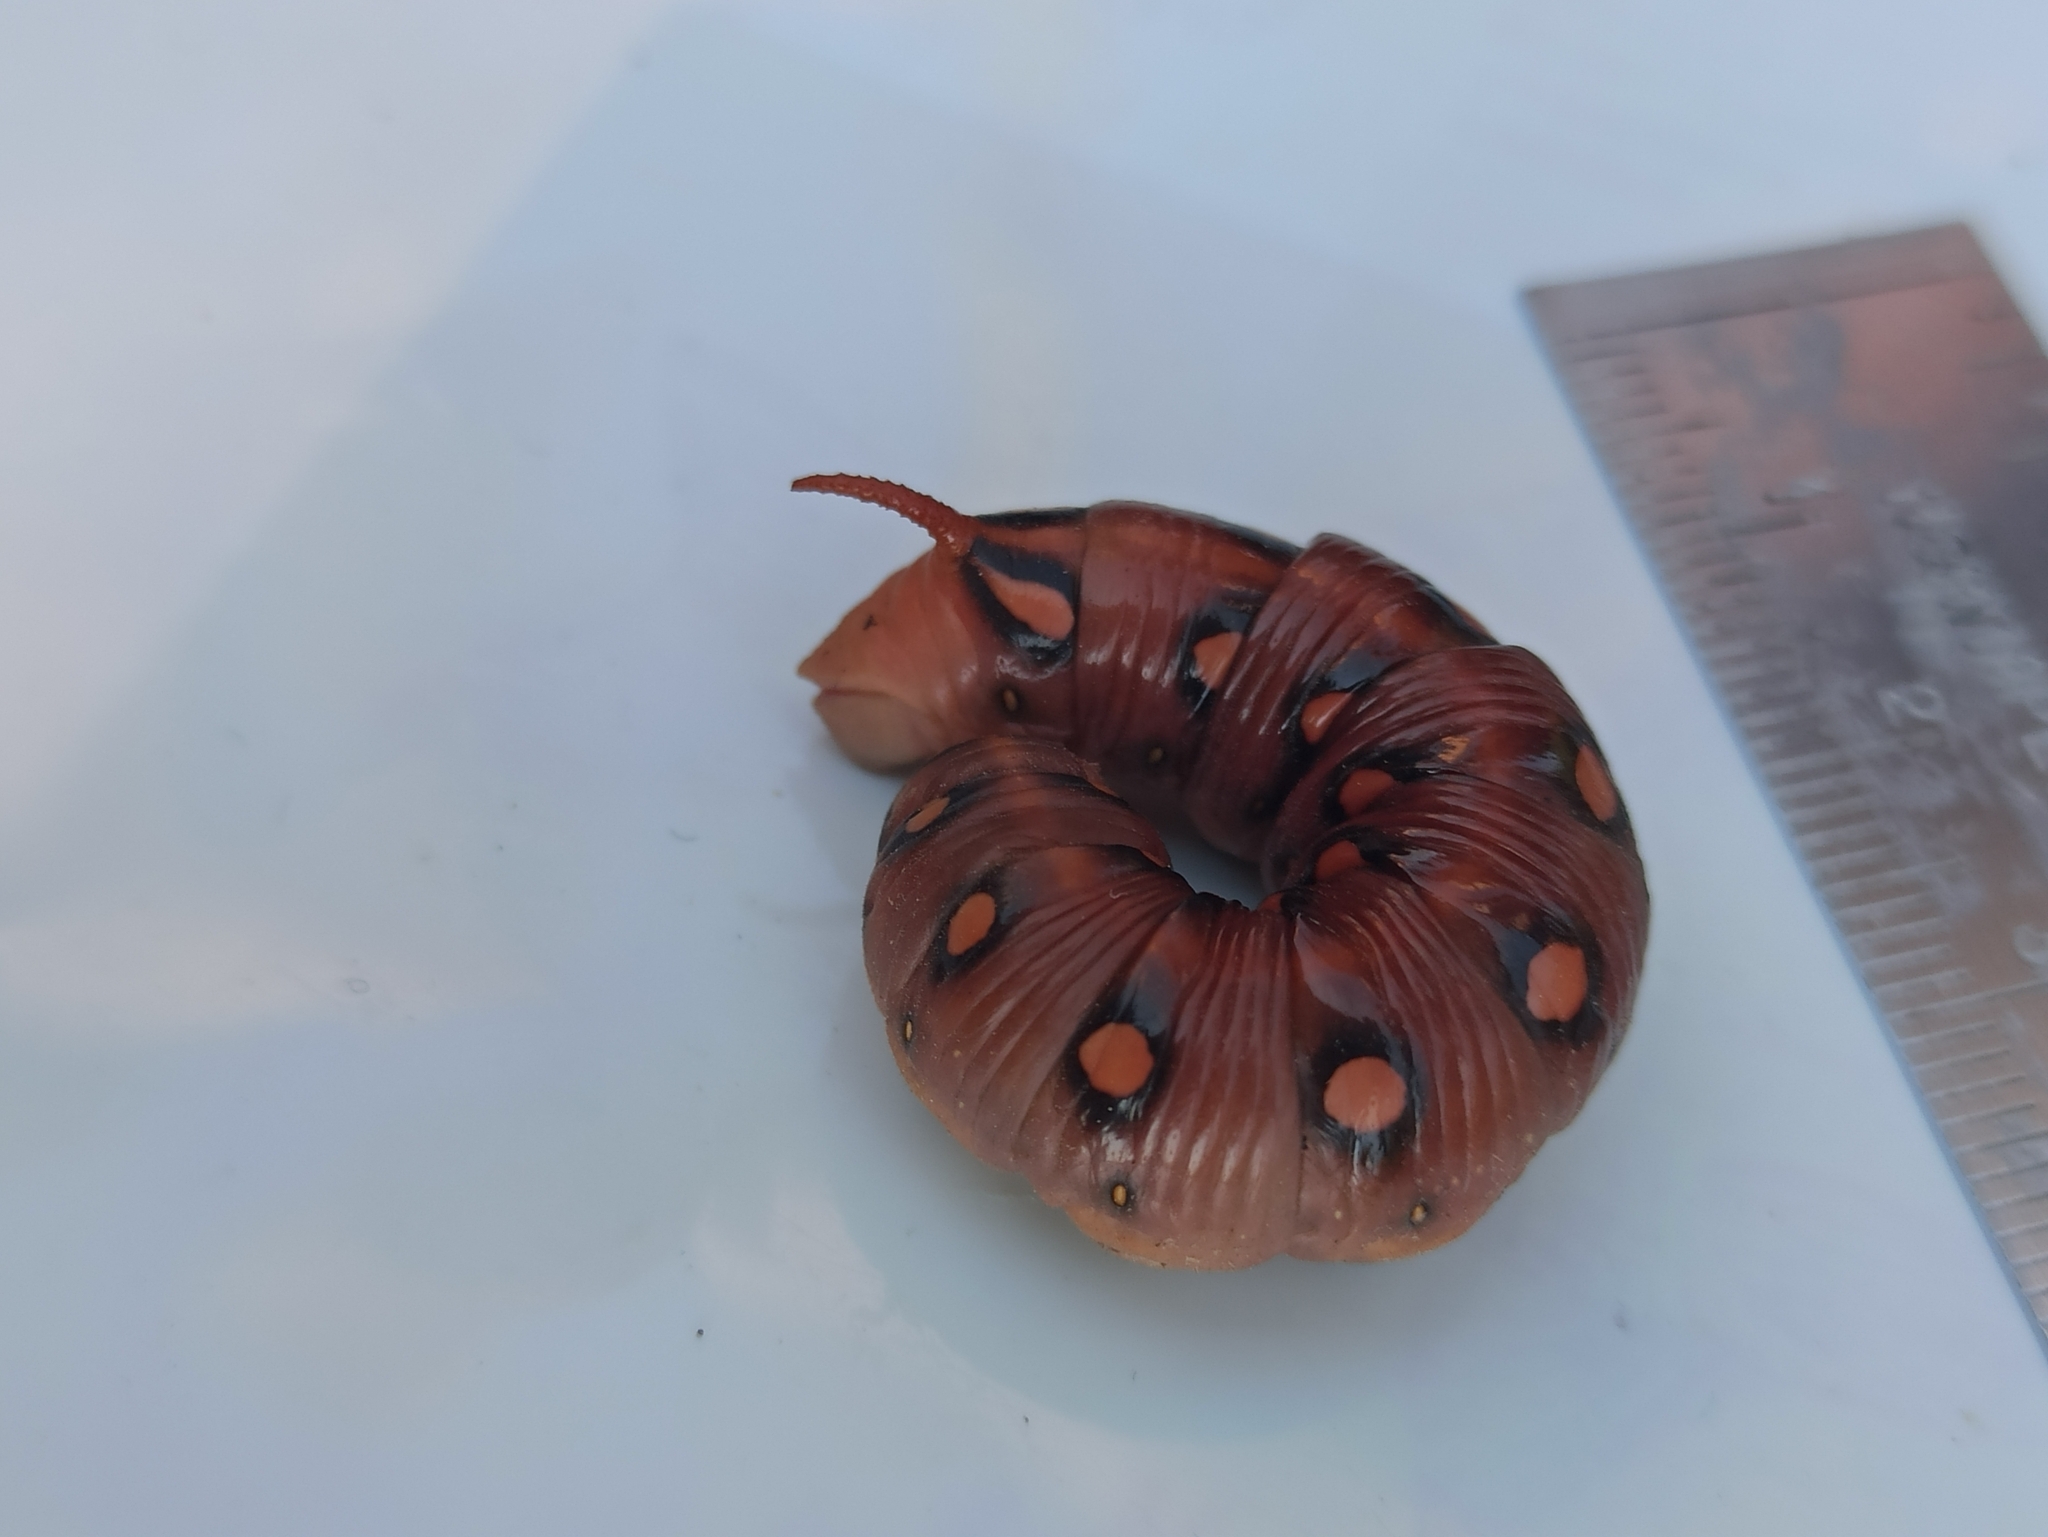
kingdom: Animalia
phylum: Arthropoda
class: Insecta
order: Lepidoptera
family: Sphingidae
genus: Hyles
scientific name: Hyles gallii
